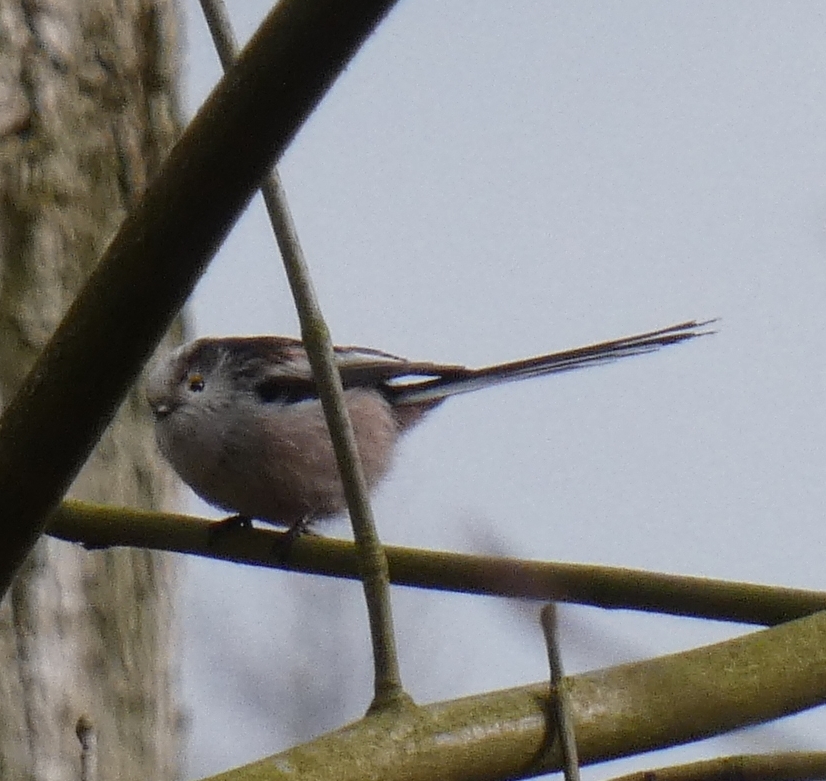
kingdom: Animalia
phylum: Chordata
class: Aves
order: Passeriformes
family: Aegithalidae
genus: Aegithalos
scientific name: Aegithalos caudatus
